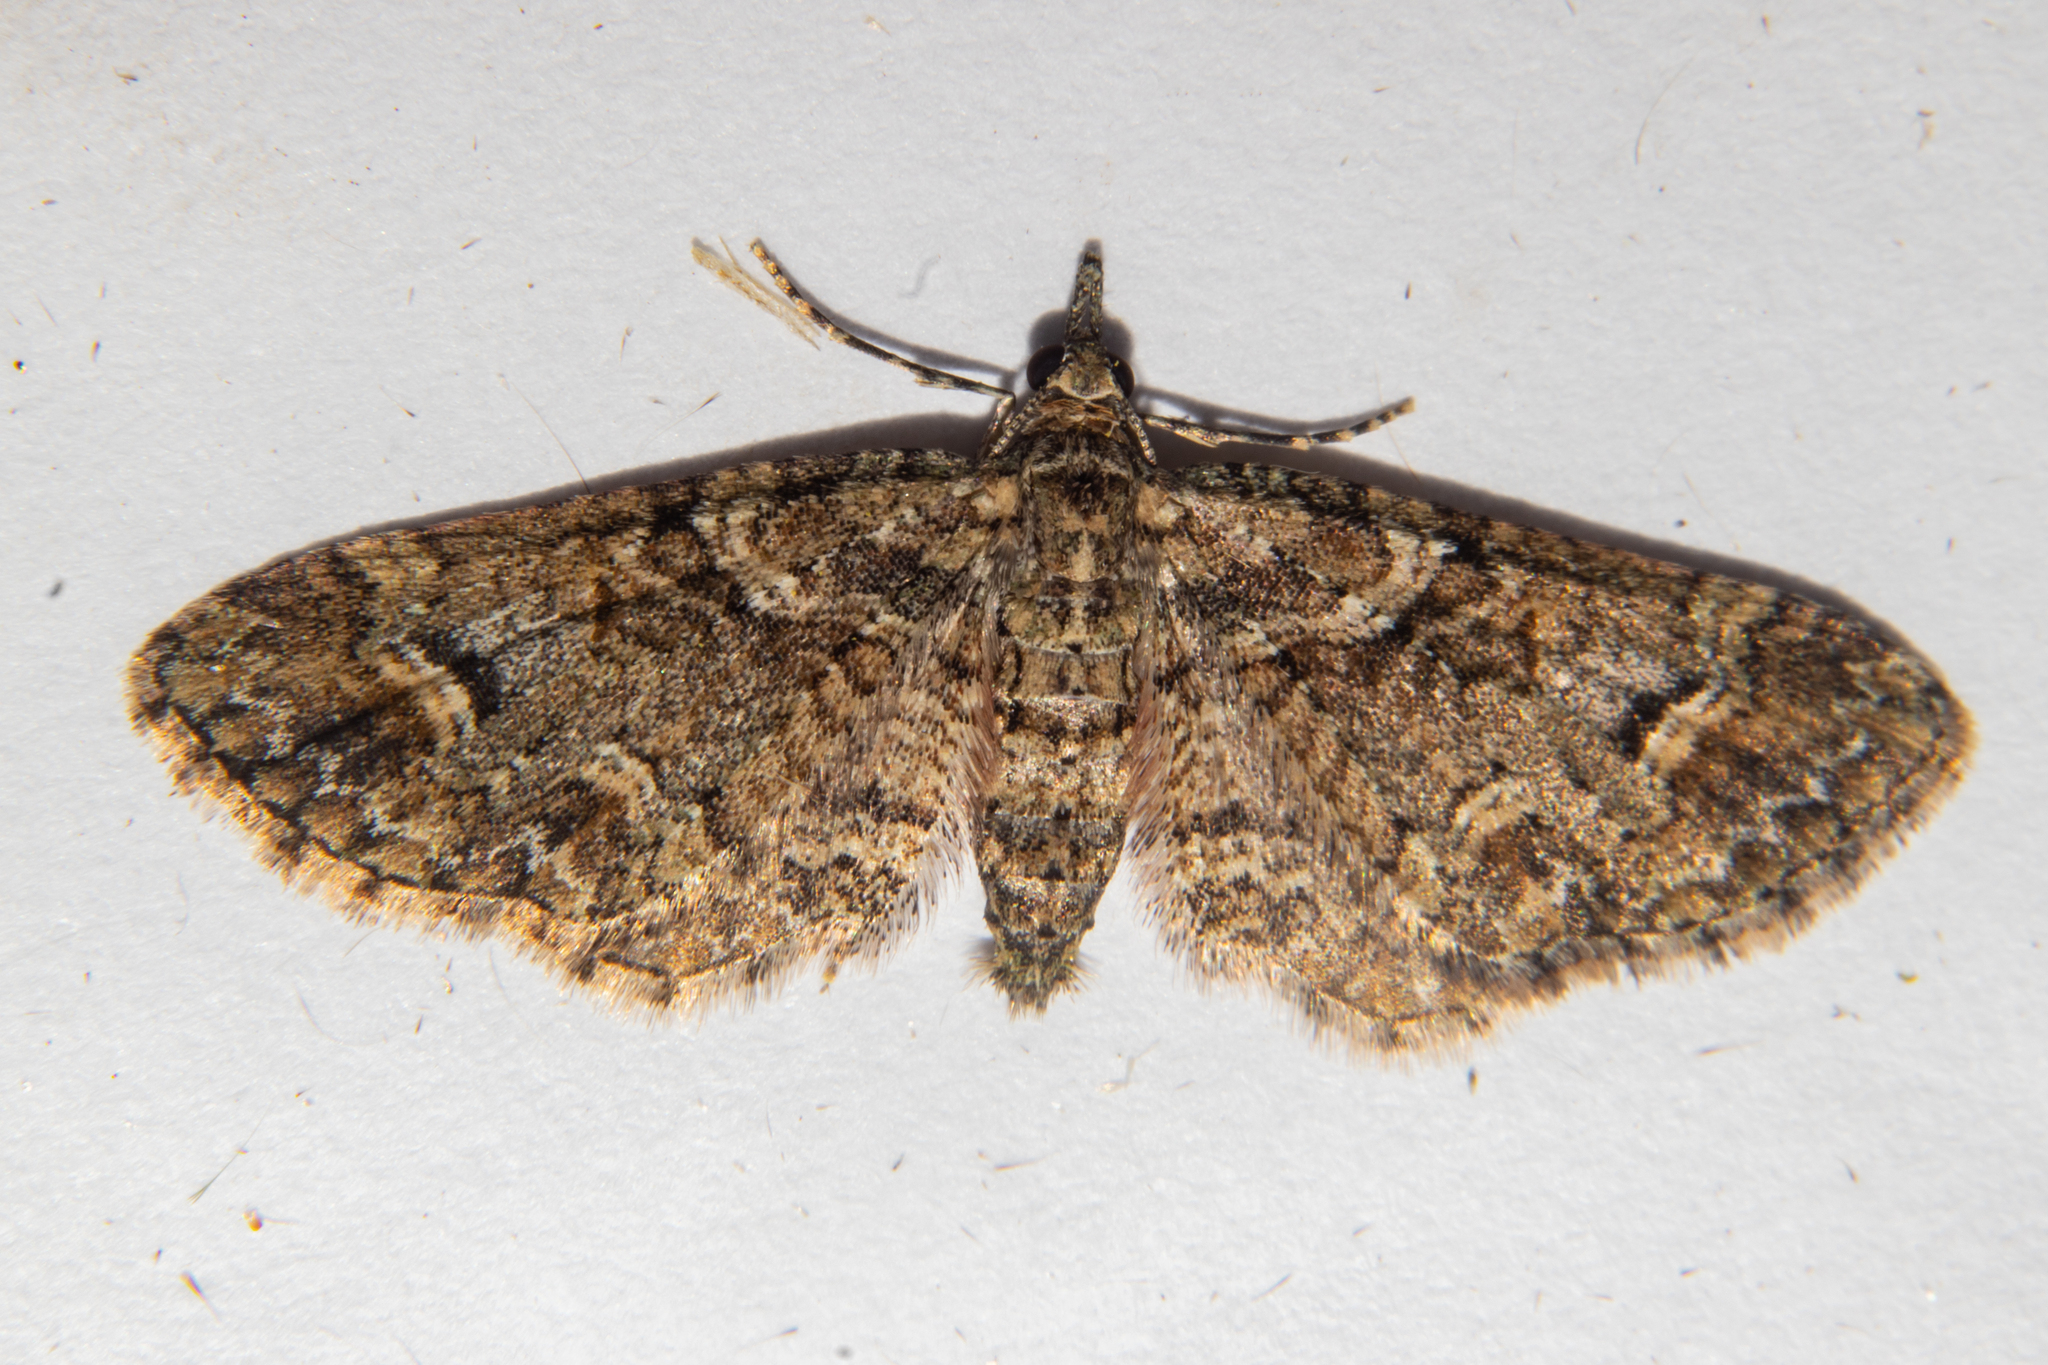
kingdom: Animalia
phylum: Arthropoda
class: Insecta
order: Lepidoptera
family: Geometridae
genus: Idaea
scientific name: Idaea mutanda
